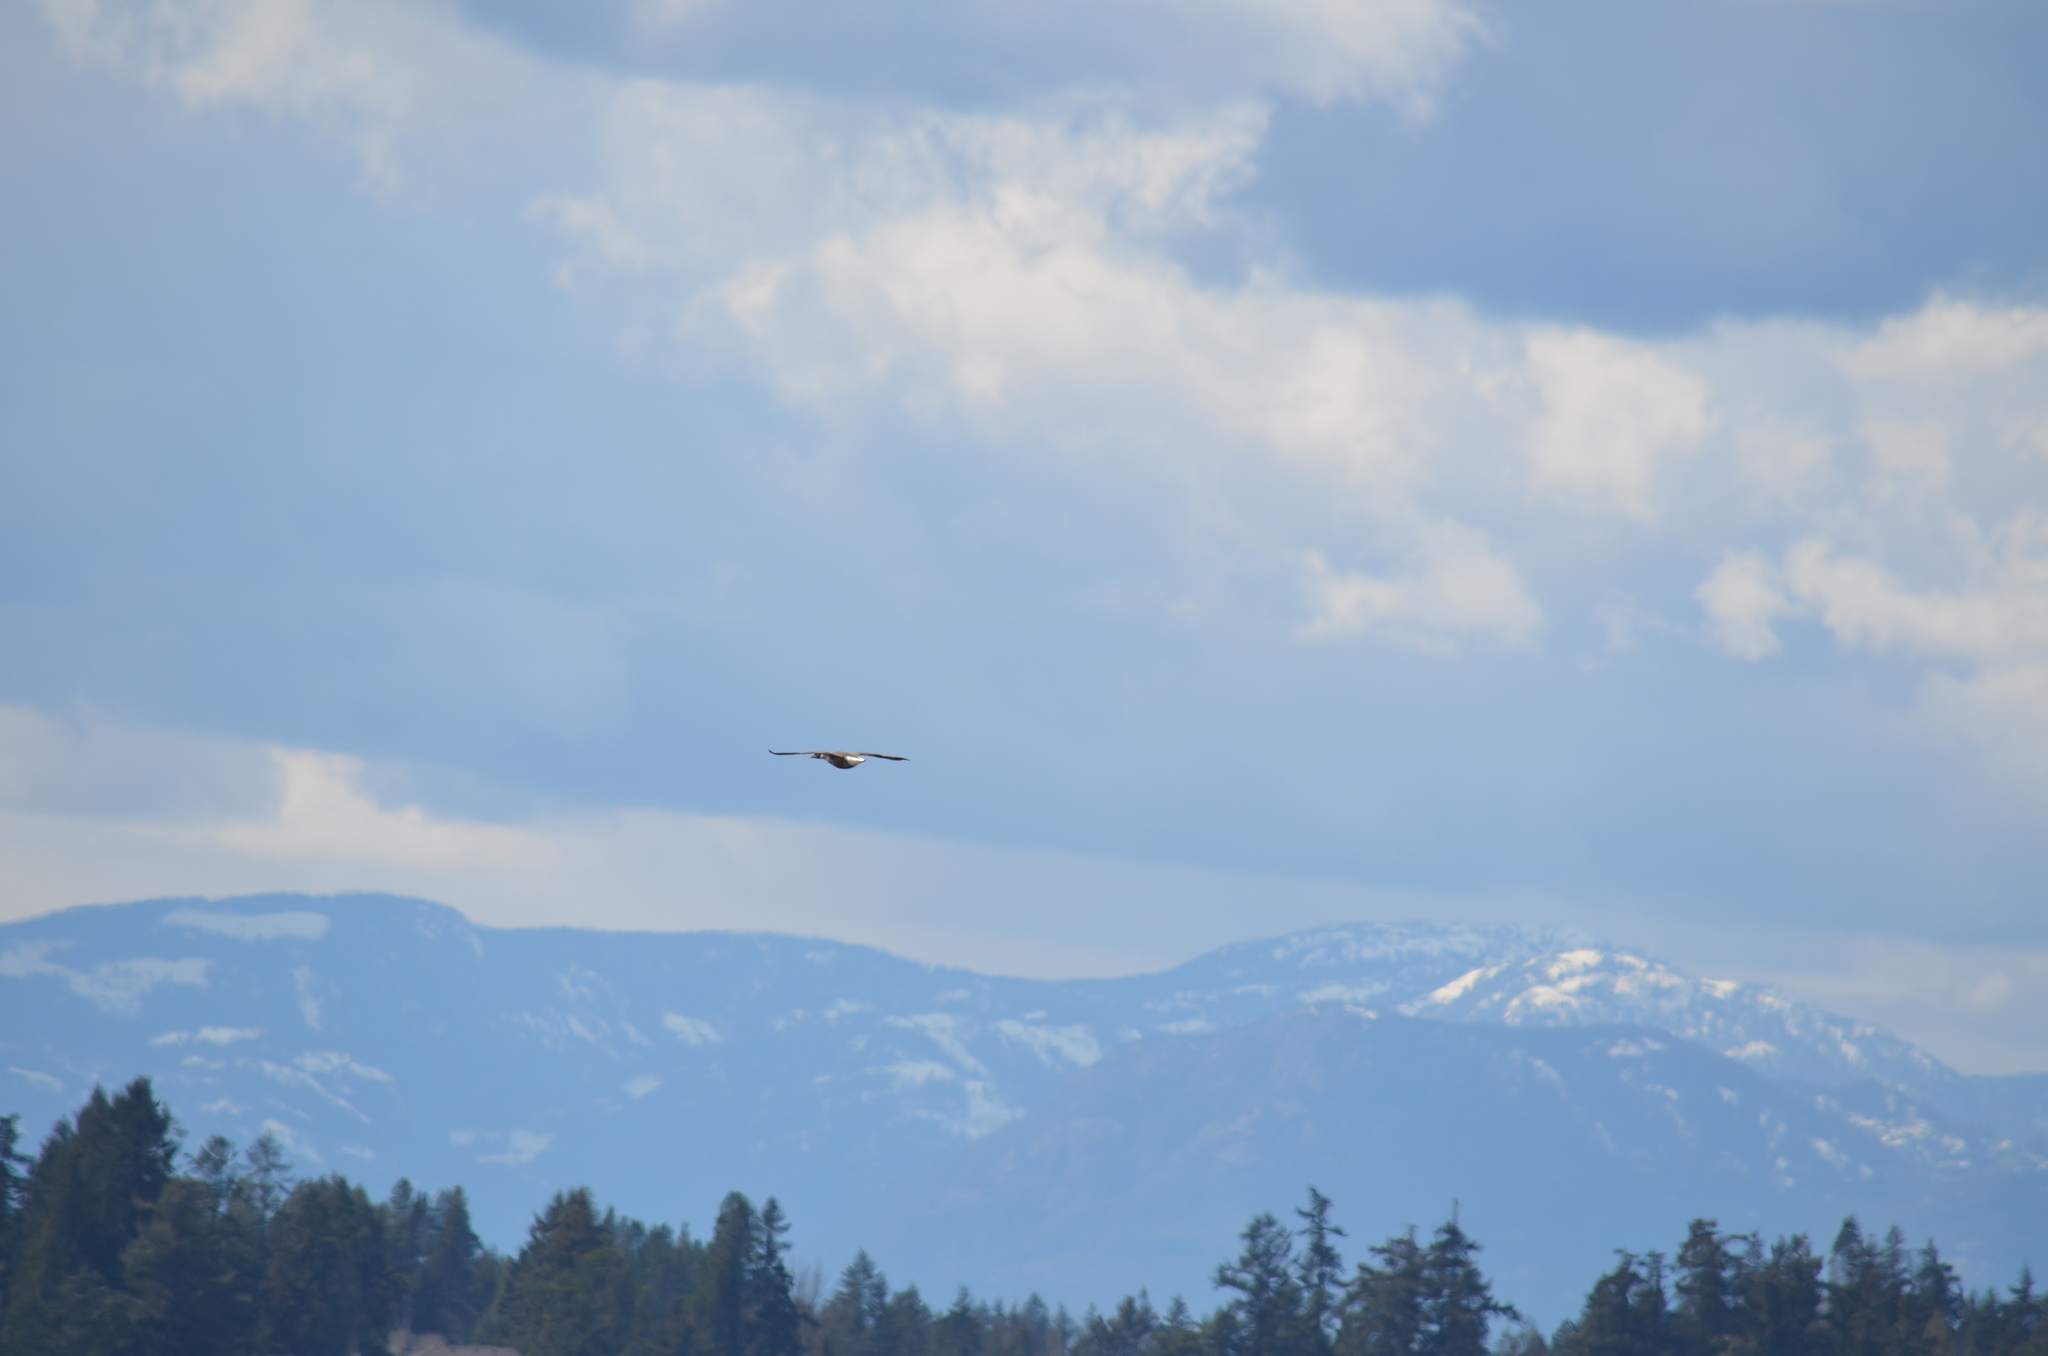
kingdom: Animalia
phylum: Chordata
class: Aves
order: Anseriformes
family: Anatidae
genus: Branta
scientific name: Branta bernicla
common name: Brant goose
